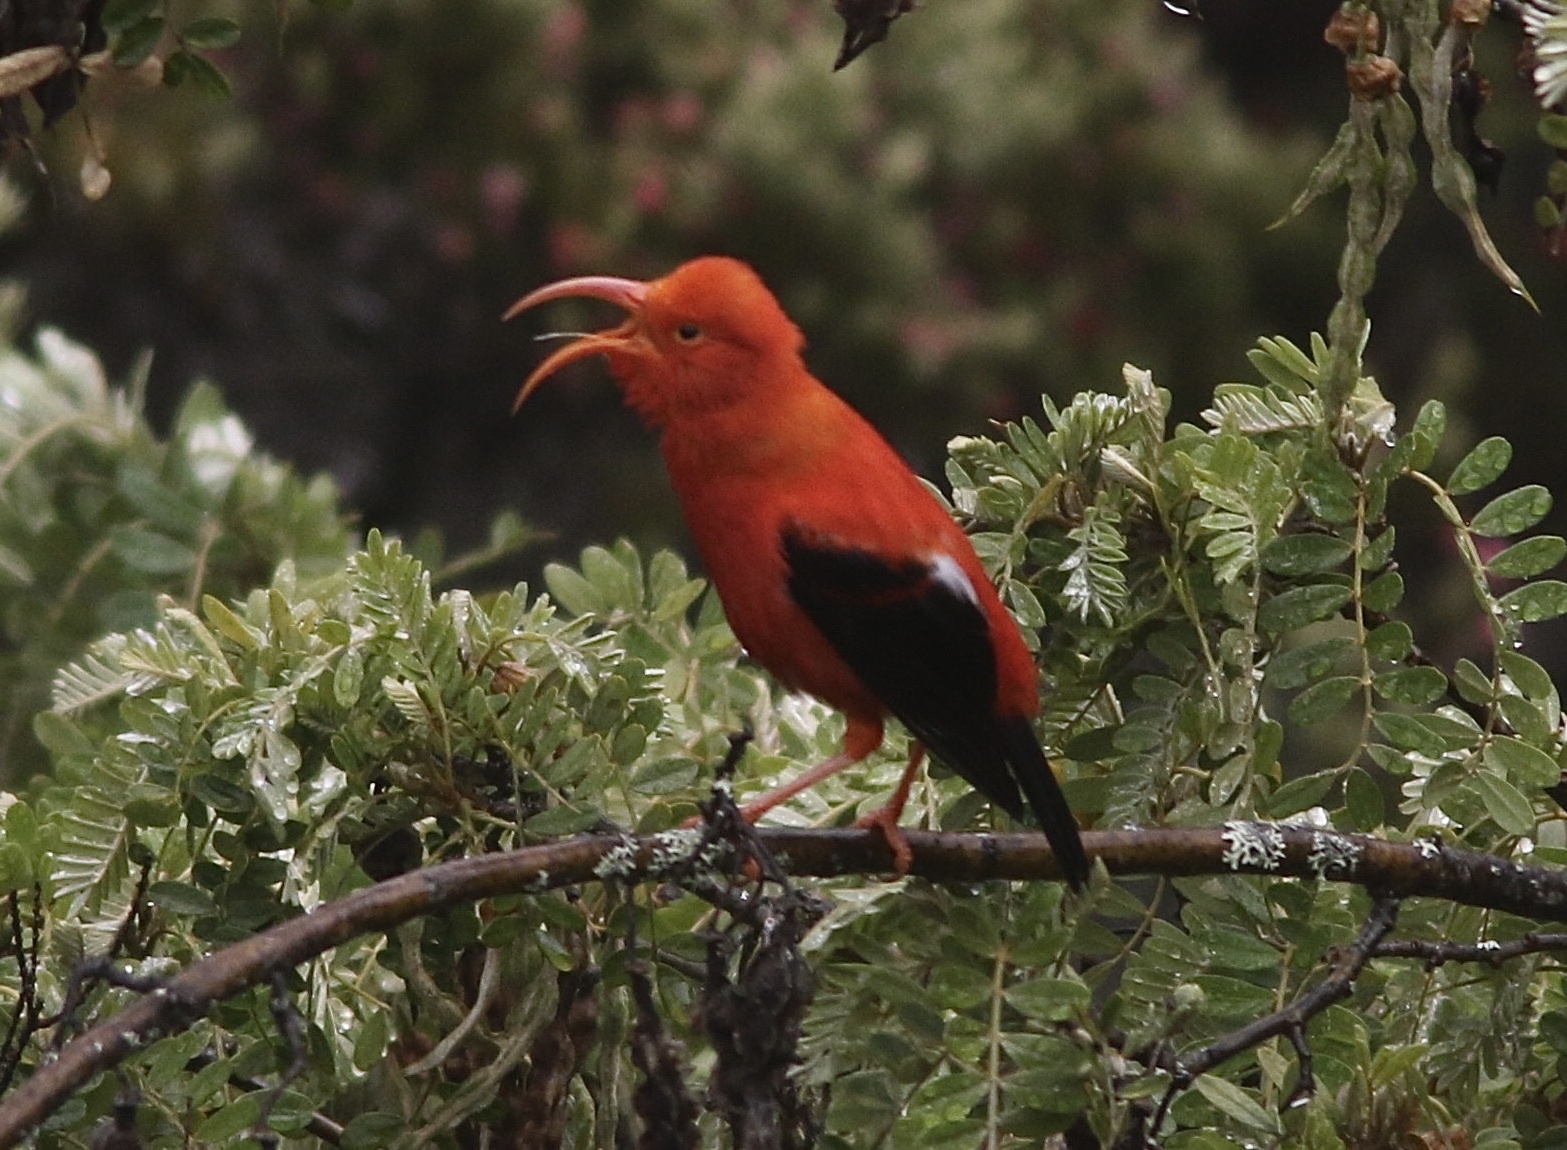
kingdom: Animalia
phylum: Chordata
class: Aves
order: Passeriformes
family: Fringillidae
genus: Vestiaria
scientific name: Vestiaria coccinea
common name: Iiwi
